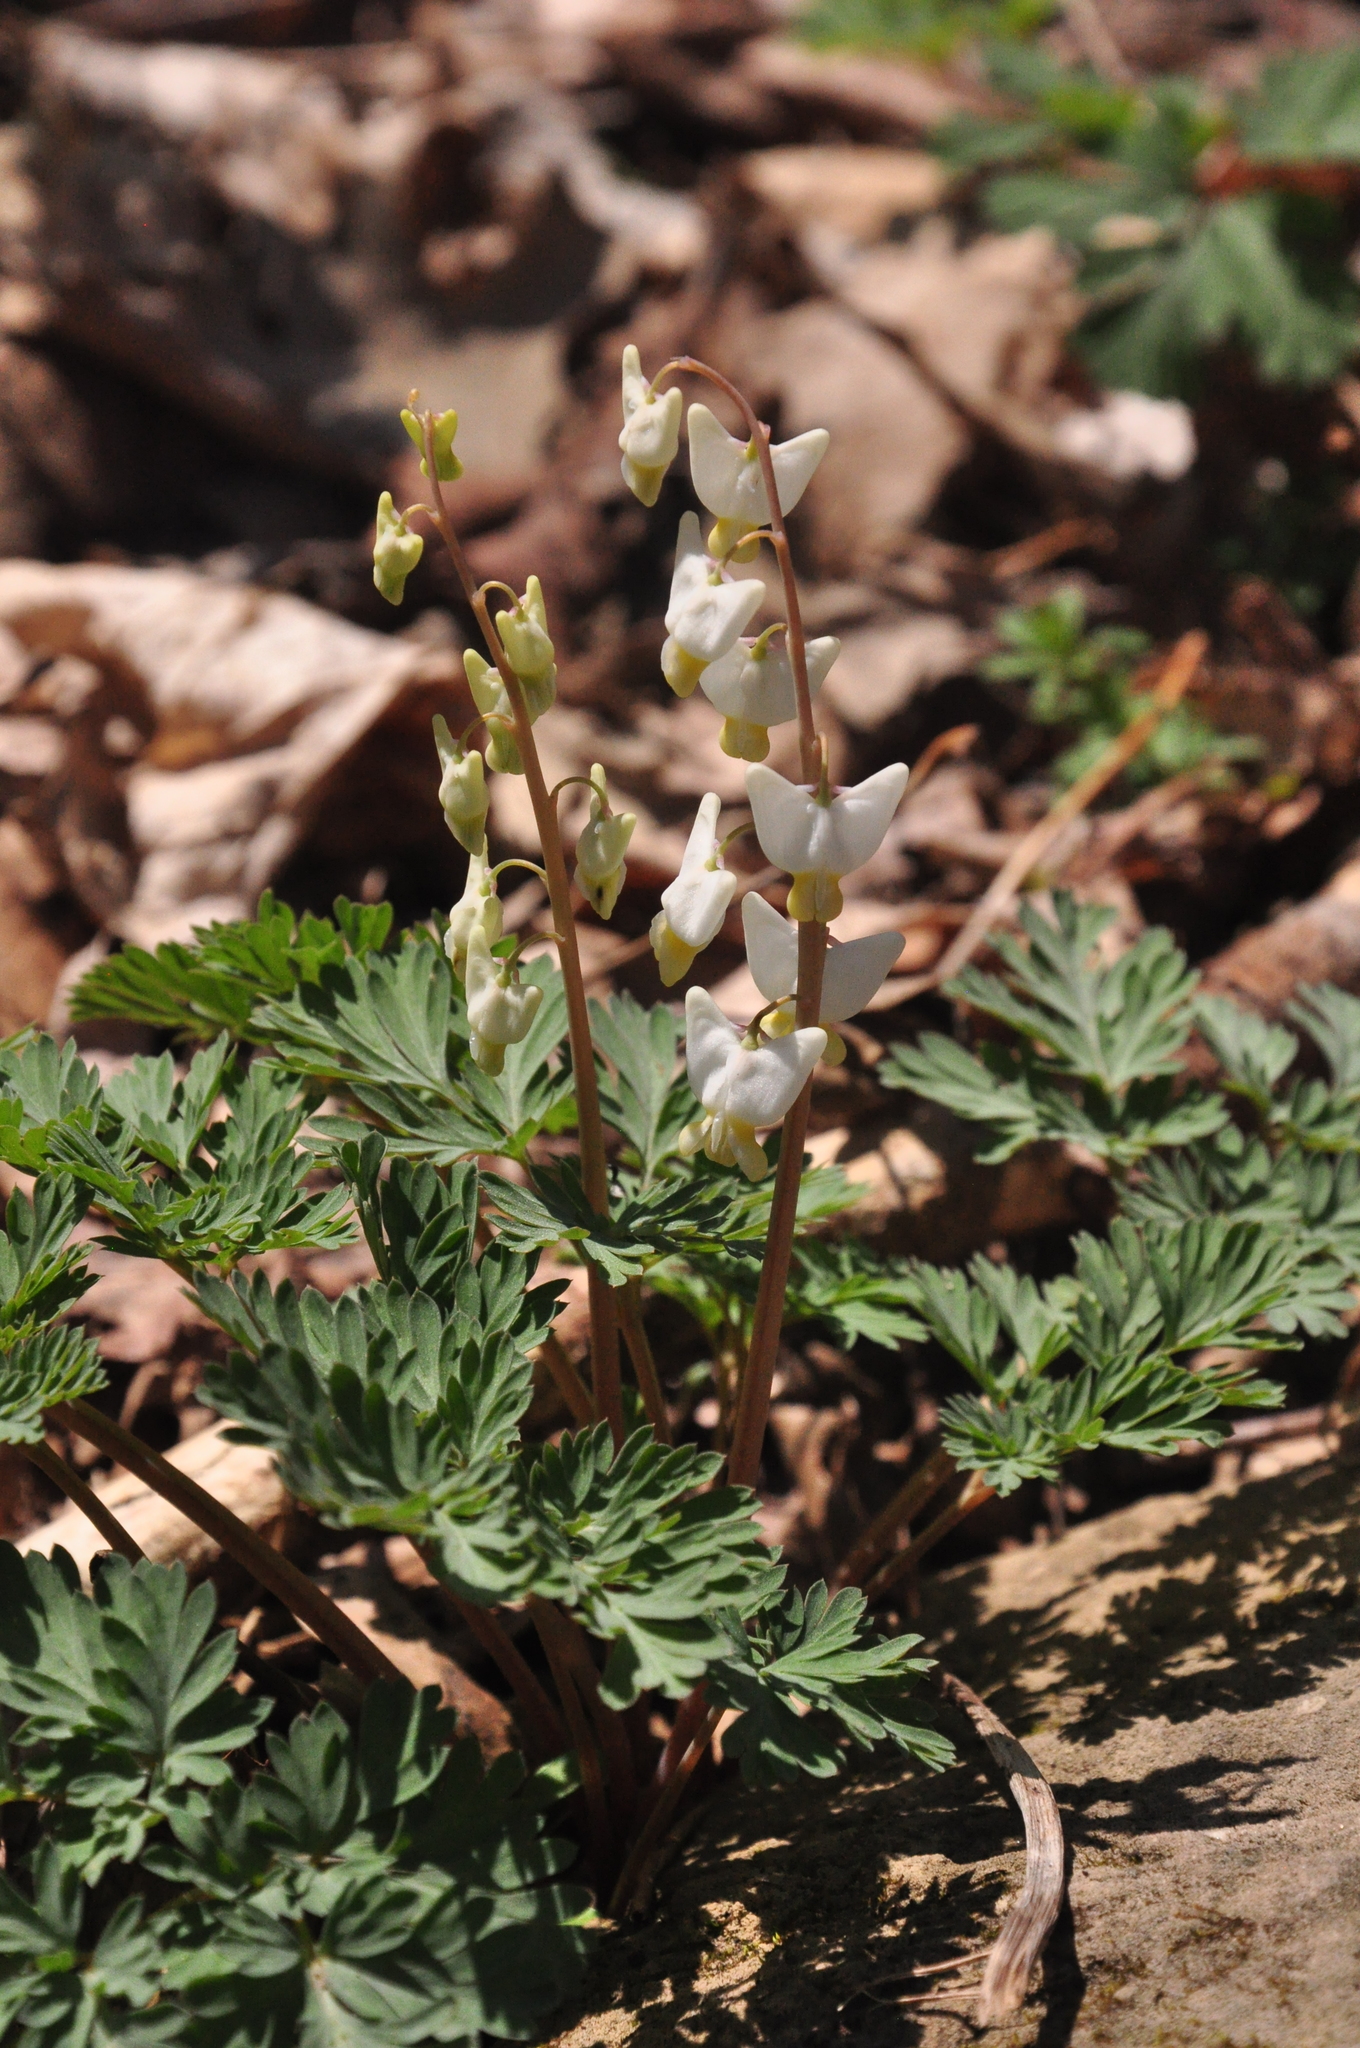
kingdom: Plantae
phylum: Tracheophyta
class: Magnoliopsida
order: Ranunculales
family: Papaveraceae
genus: Dicentra
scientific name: Dicentra cucullaria
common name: Dutchman's breeches
